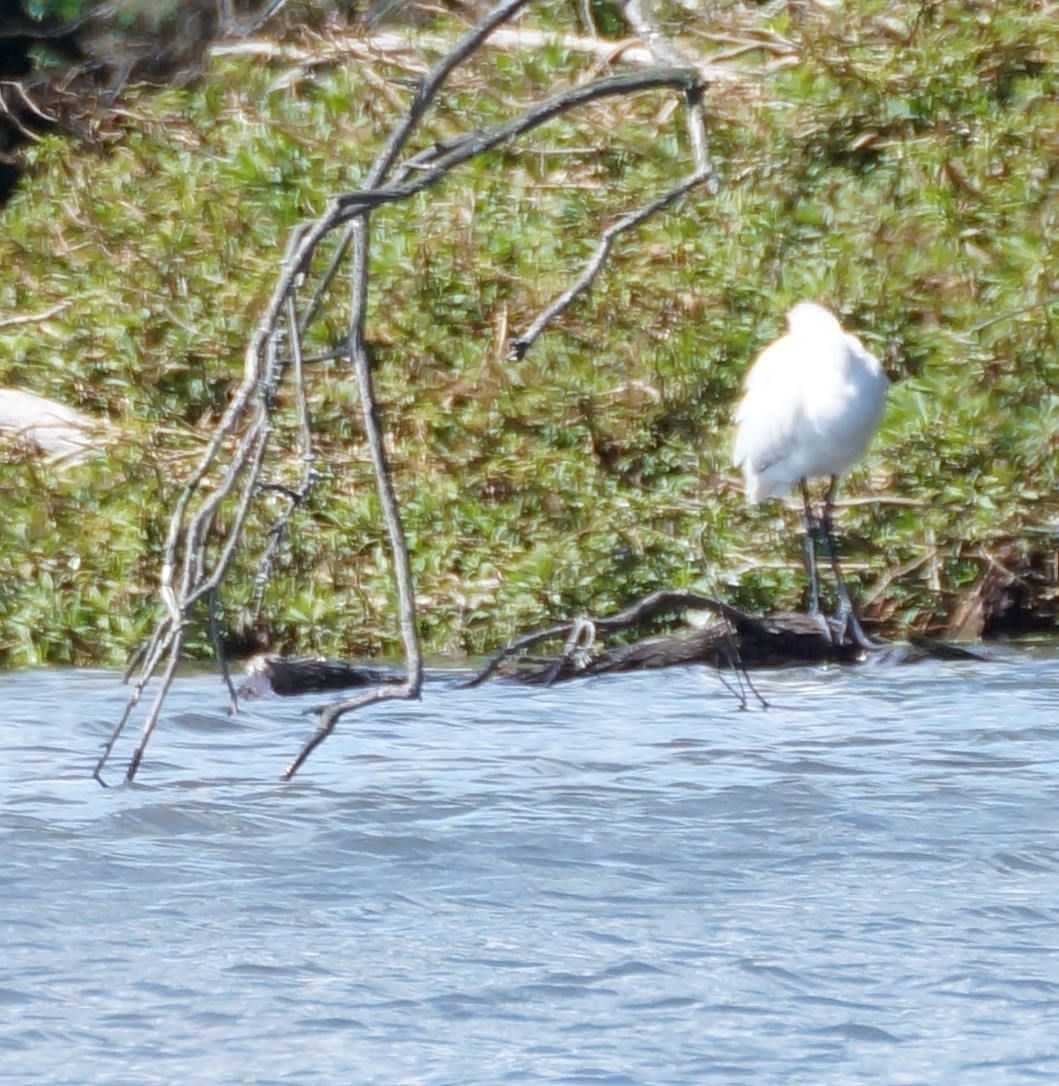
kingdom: Animalia
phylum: Chordata
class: Aves
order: Pelecaniformes
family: Threskiornithidae
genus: Platalea
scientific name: Platalea regia
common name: Royal spoonbill
